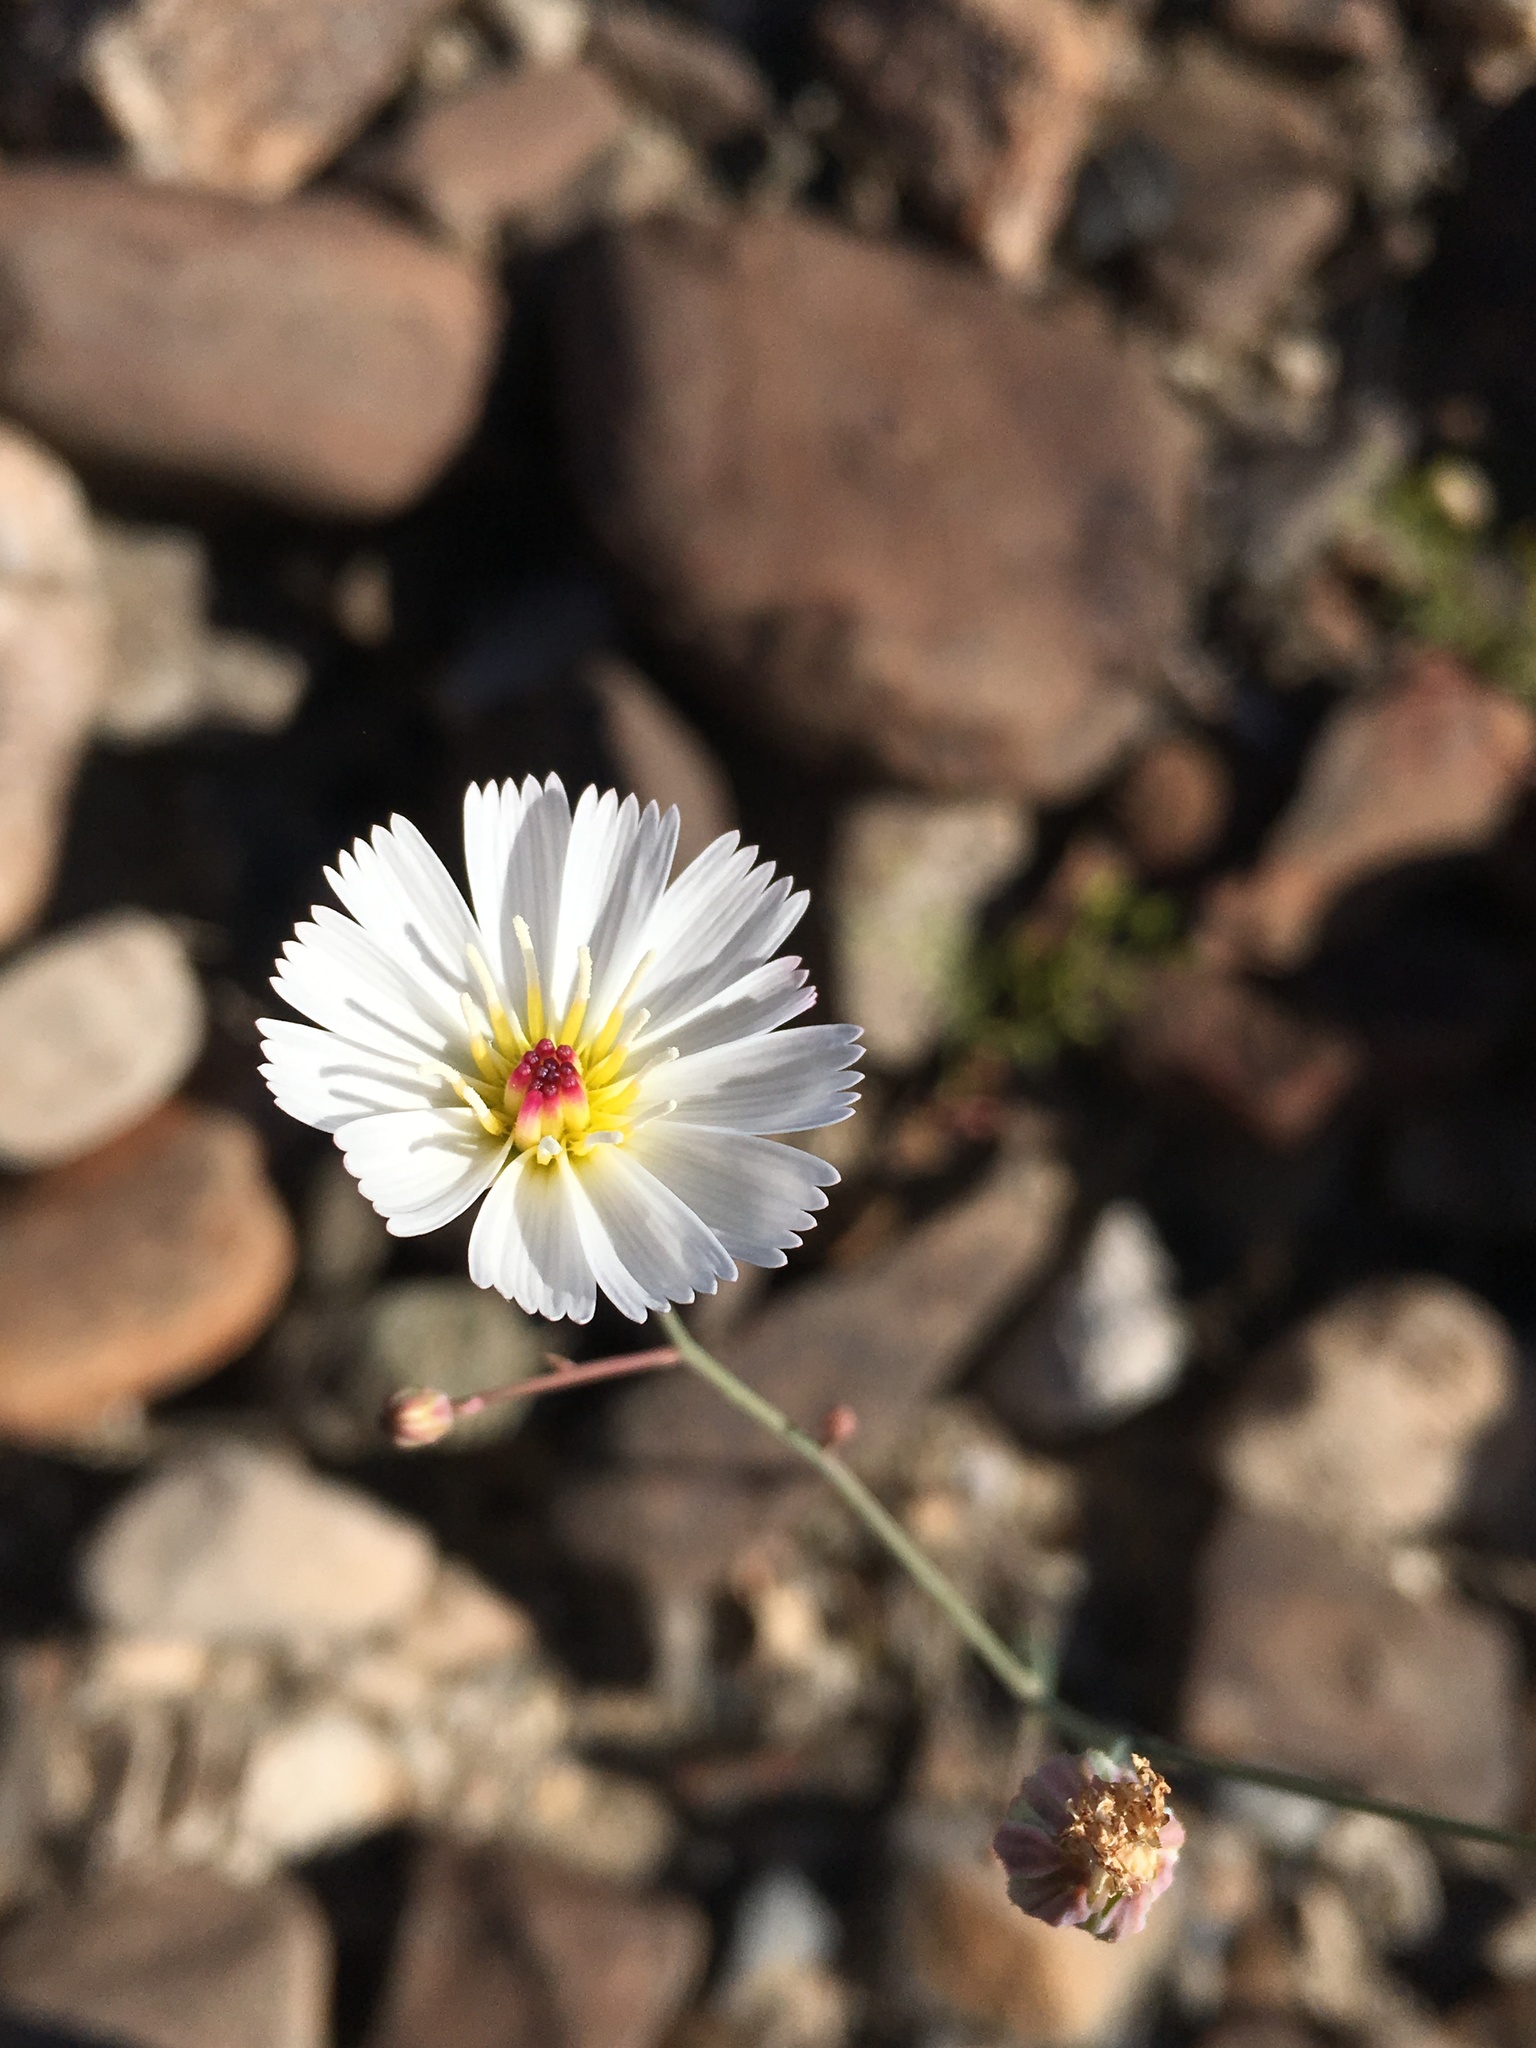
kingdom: Plantae
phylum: Tracheophyta
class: Magnoliopsida
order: Asterales
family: Asteraceae
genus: Atrichoseris
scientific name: Atrichoseris platyphylla
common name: Tobaccoweed
